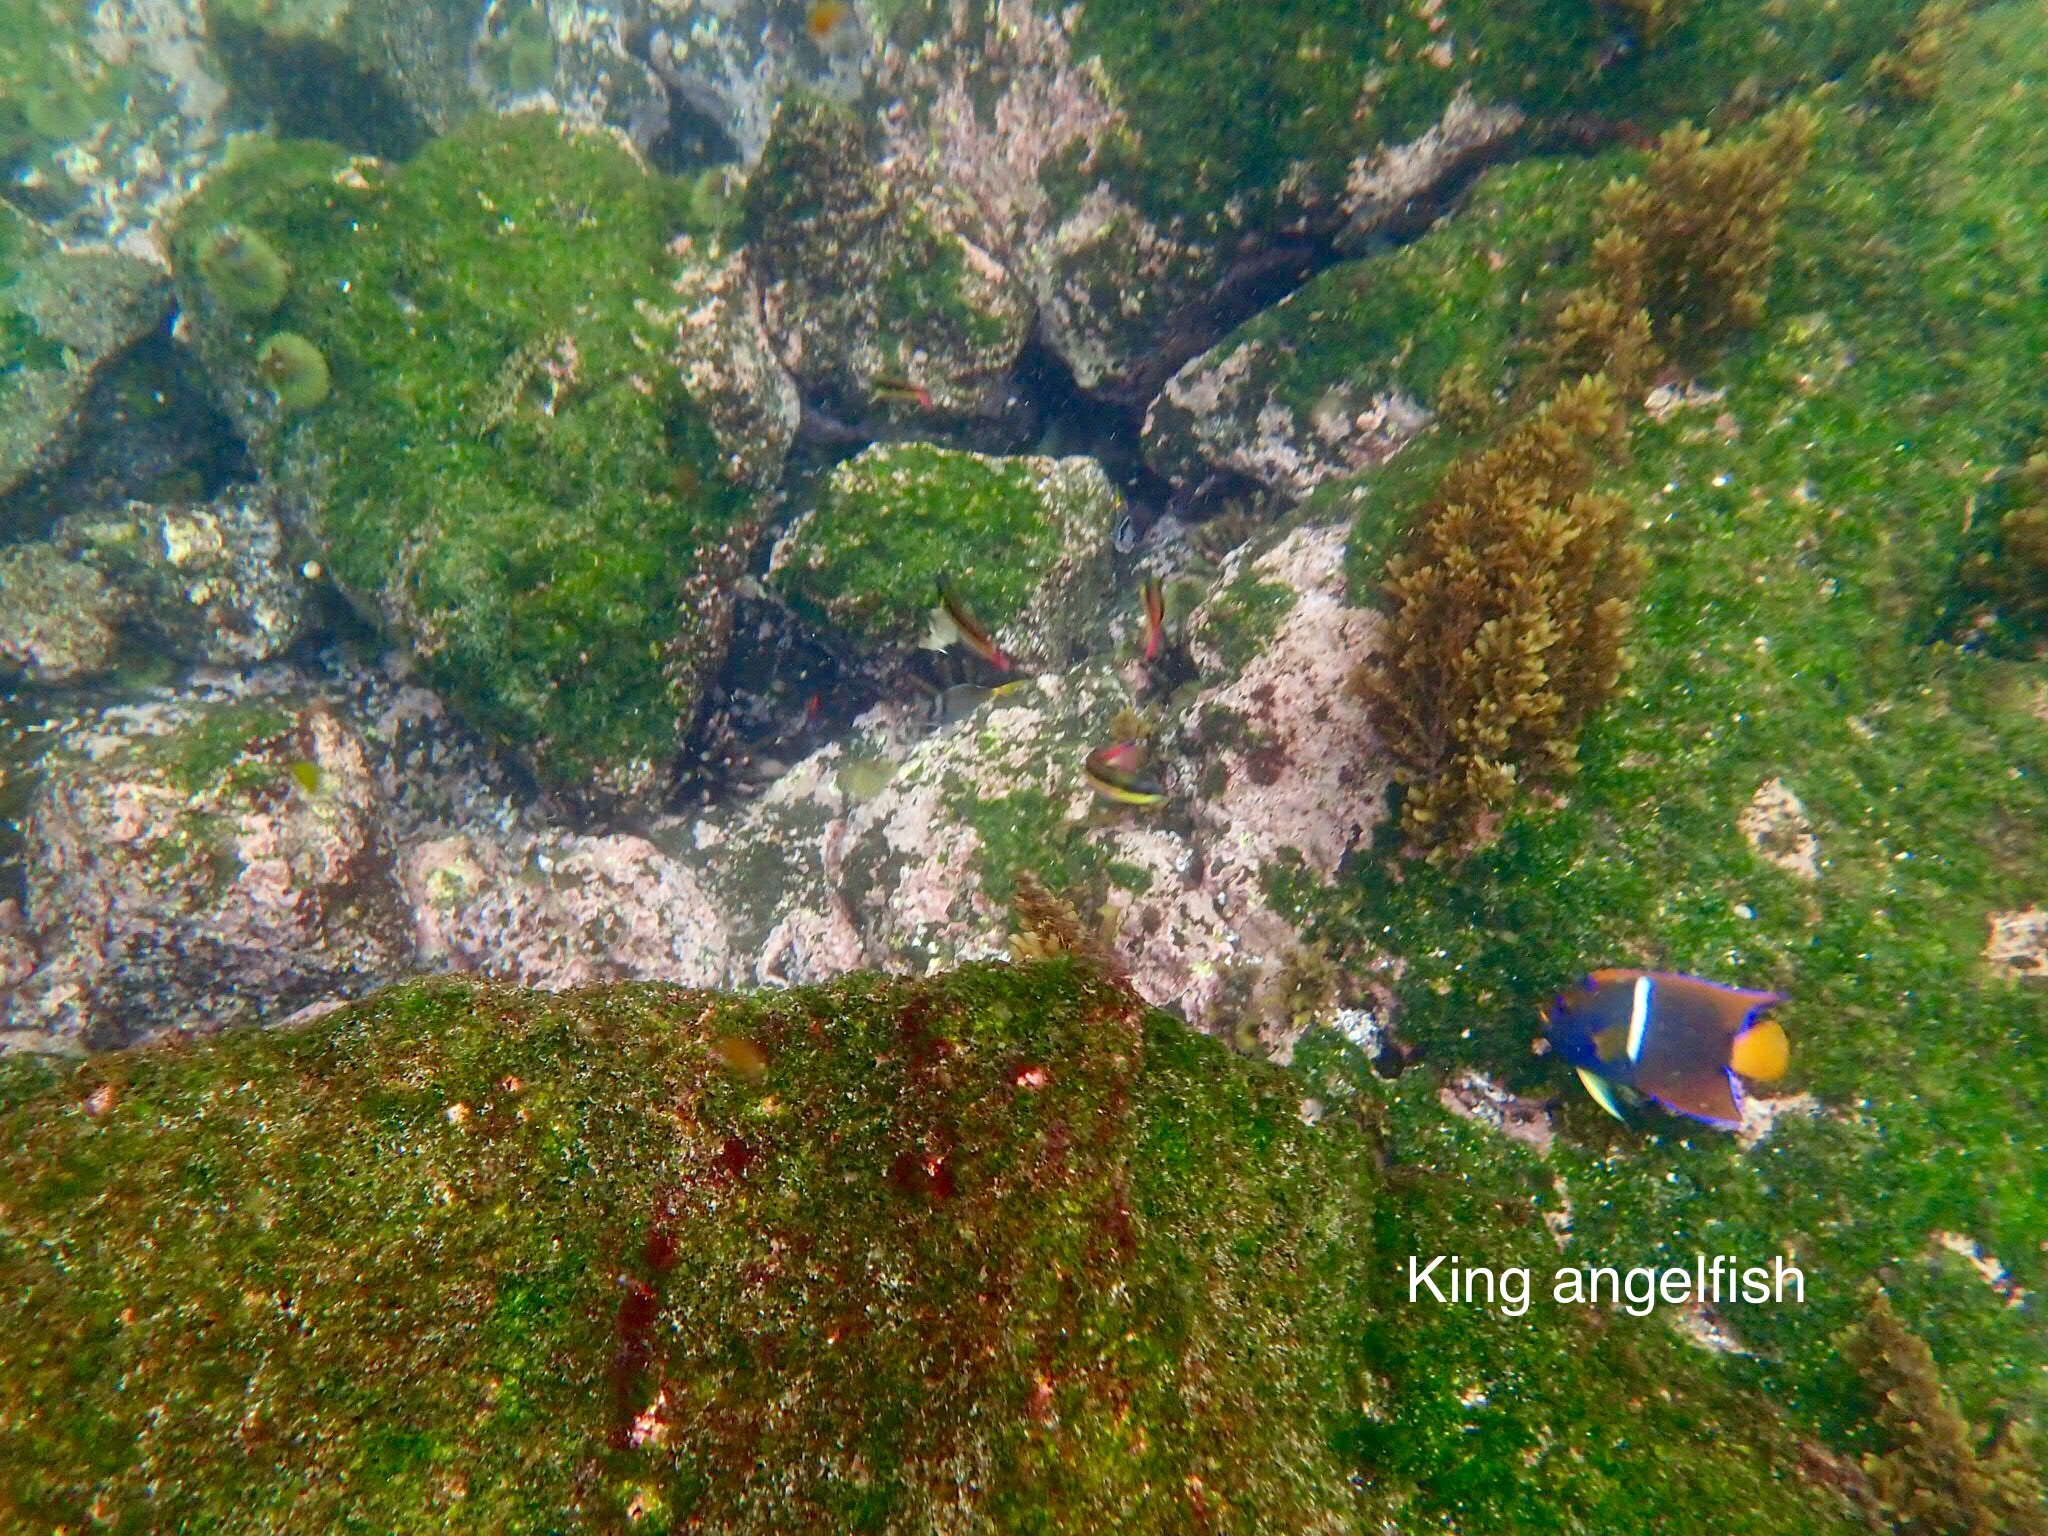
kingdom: Animalia
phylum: Chordata
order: Perciformes
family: Pomacanthidae
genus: Holacanthus
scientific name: Holacanthus passer
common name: King angelfish
